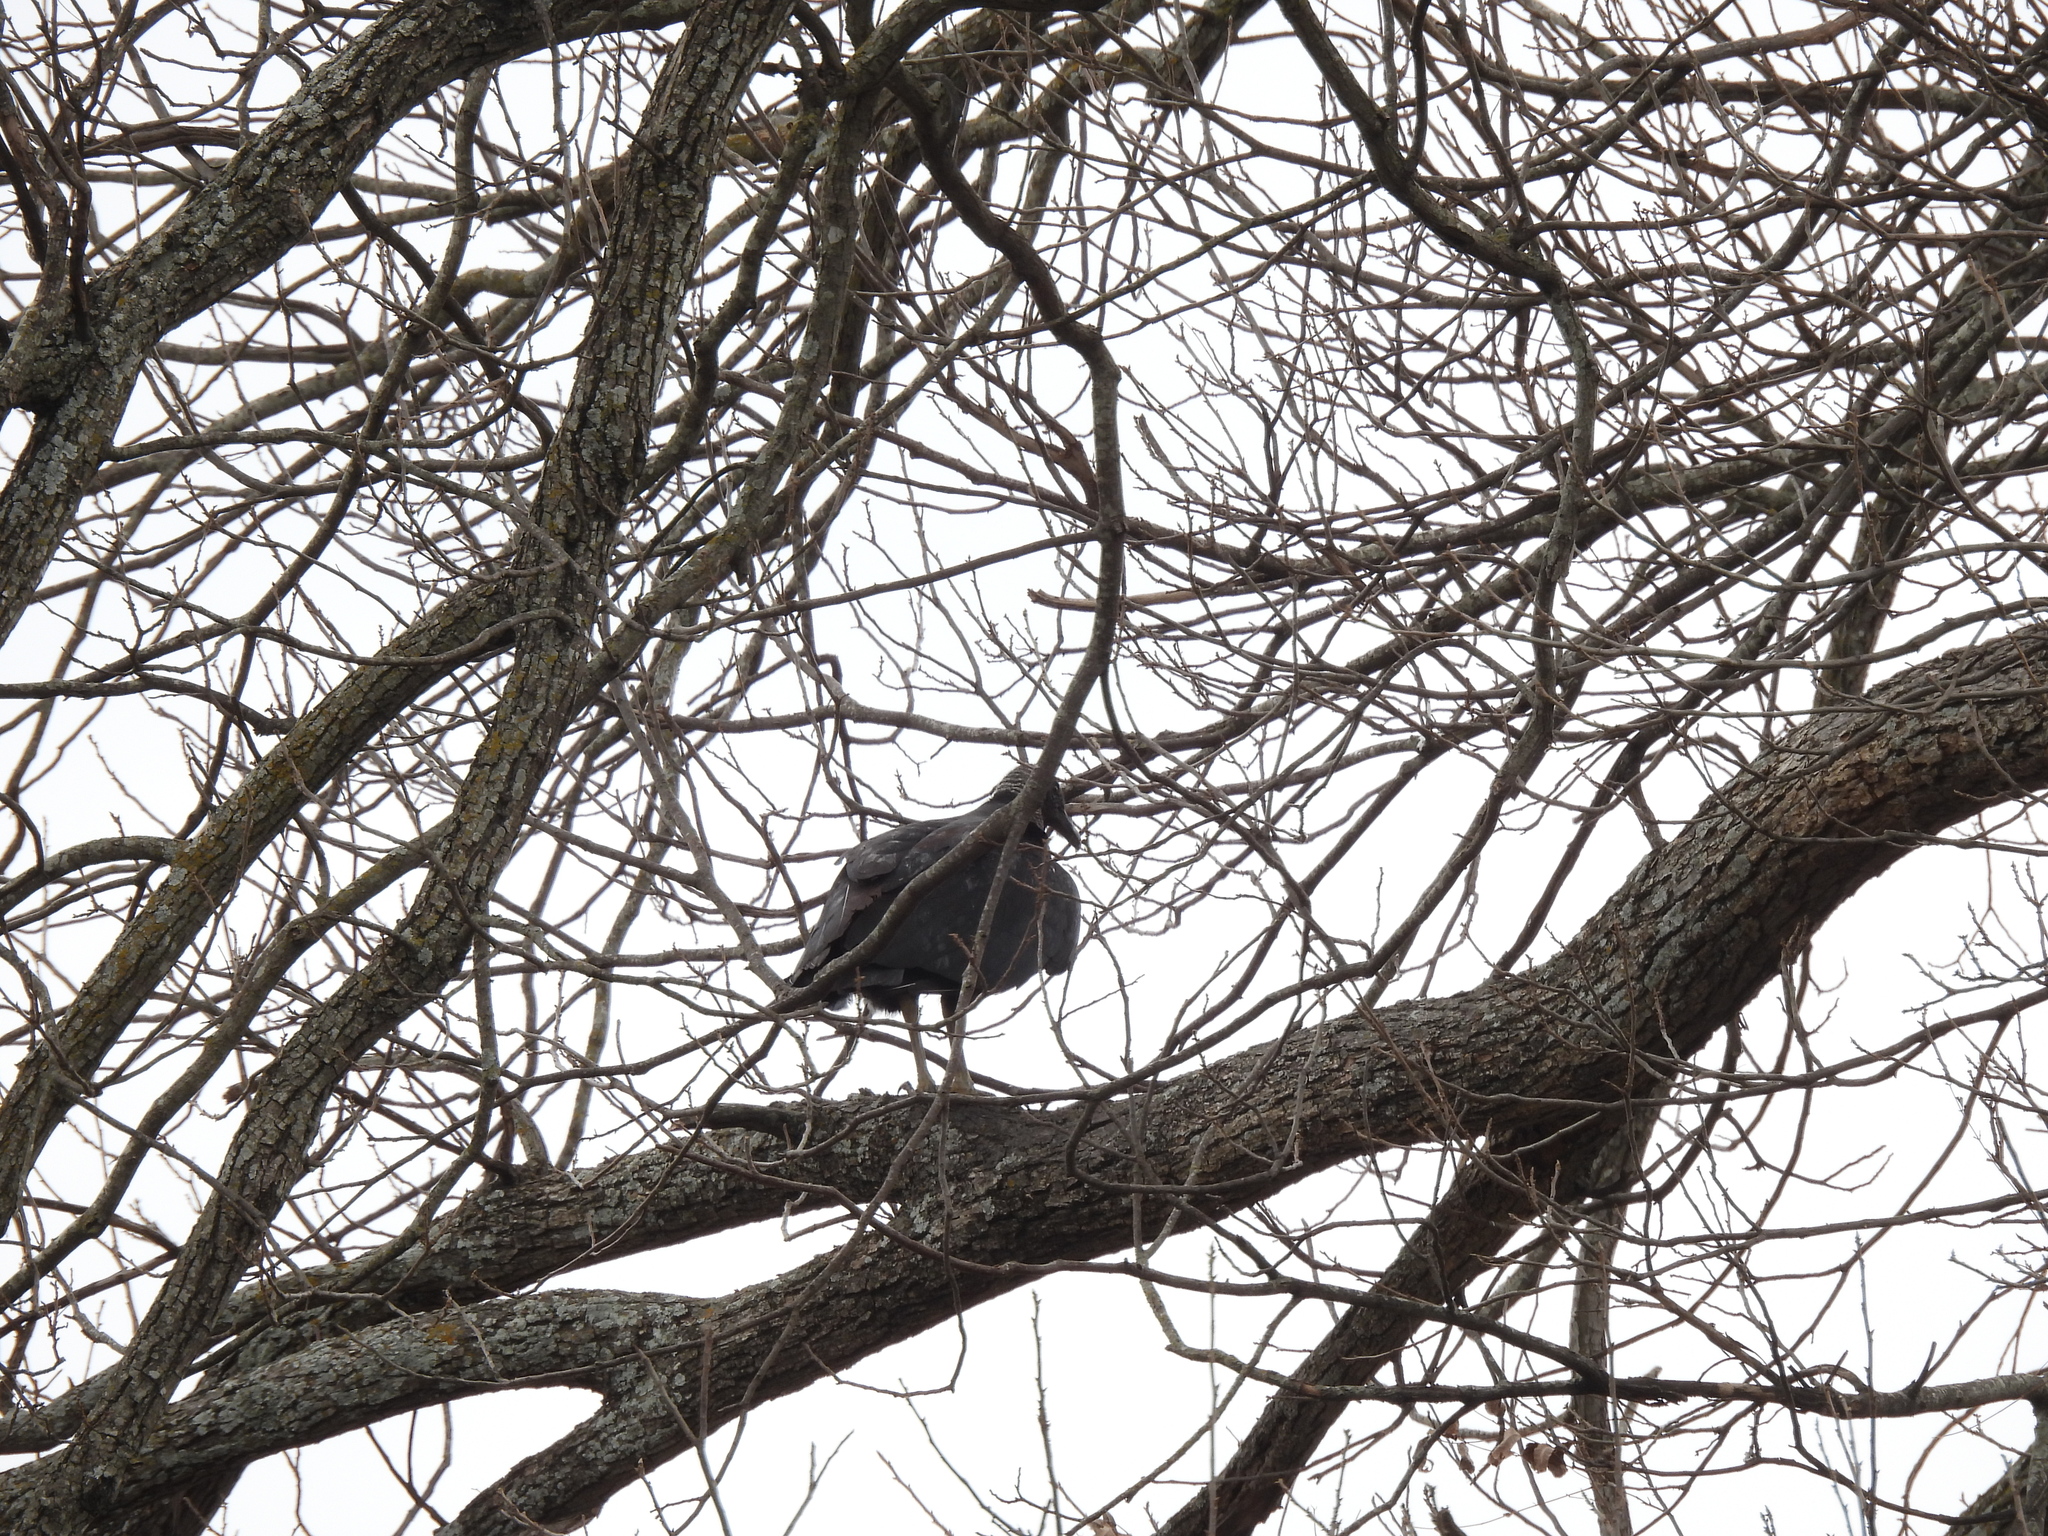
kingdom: Animalia
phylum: Chordata
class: Aves
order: Accipitriformes
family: Cathartidae
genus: Coragyps
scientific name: Coragyps atratus
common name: Black vulture
